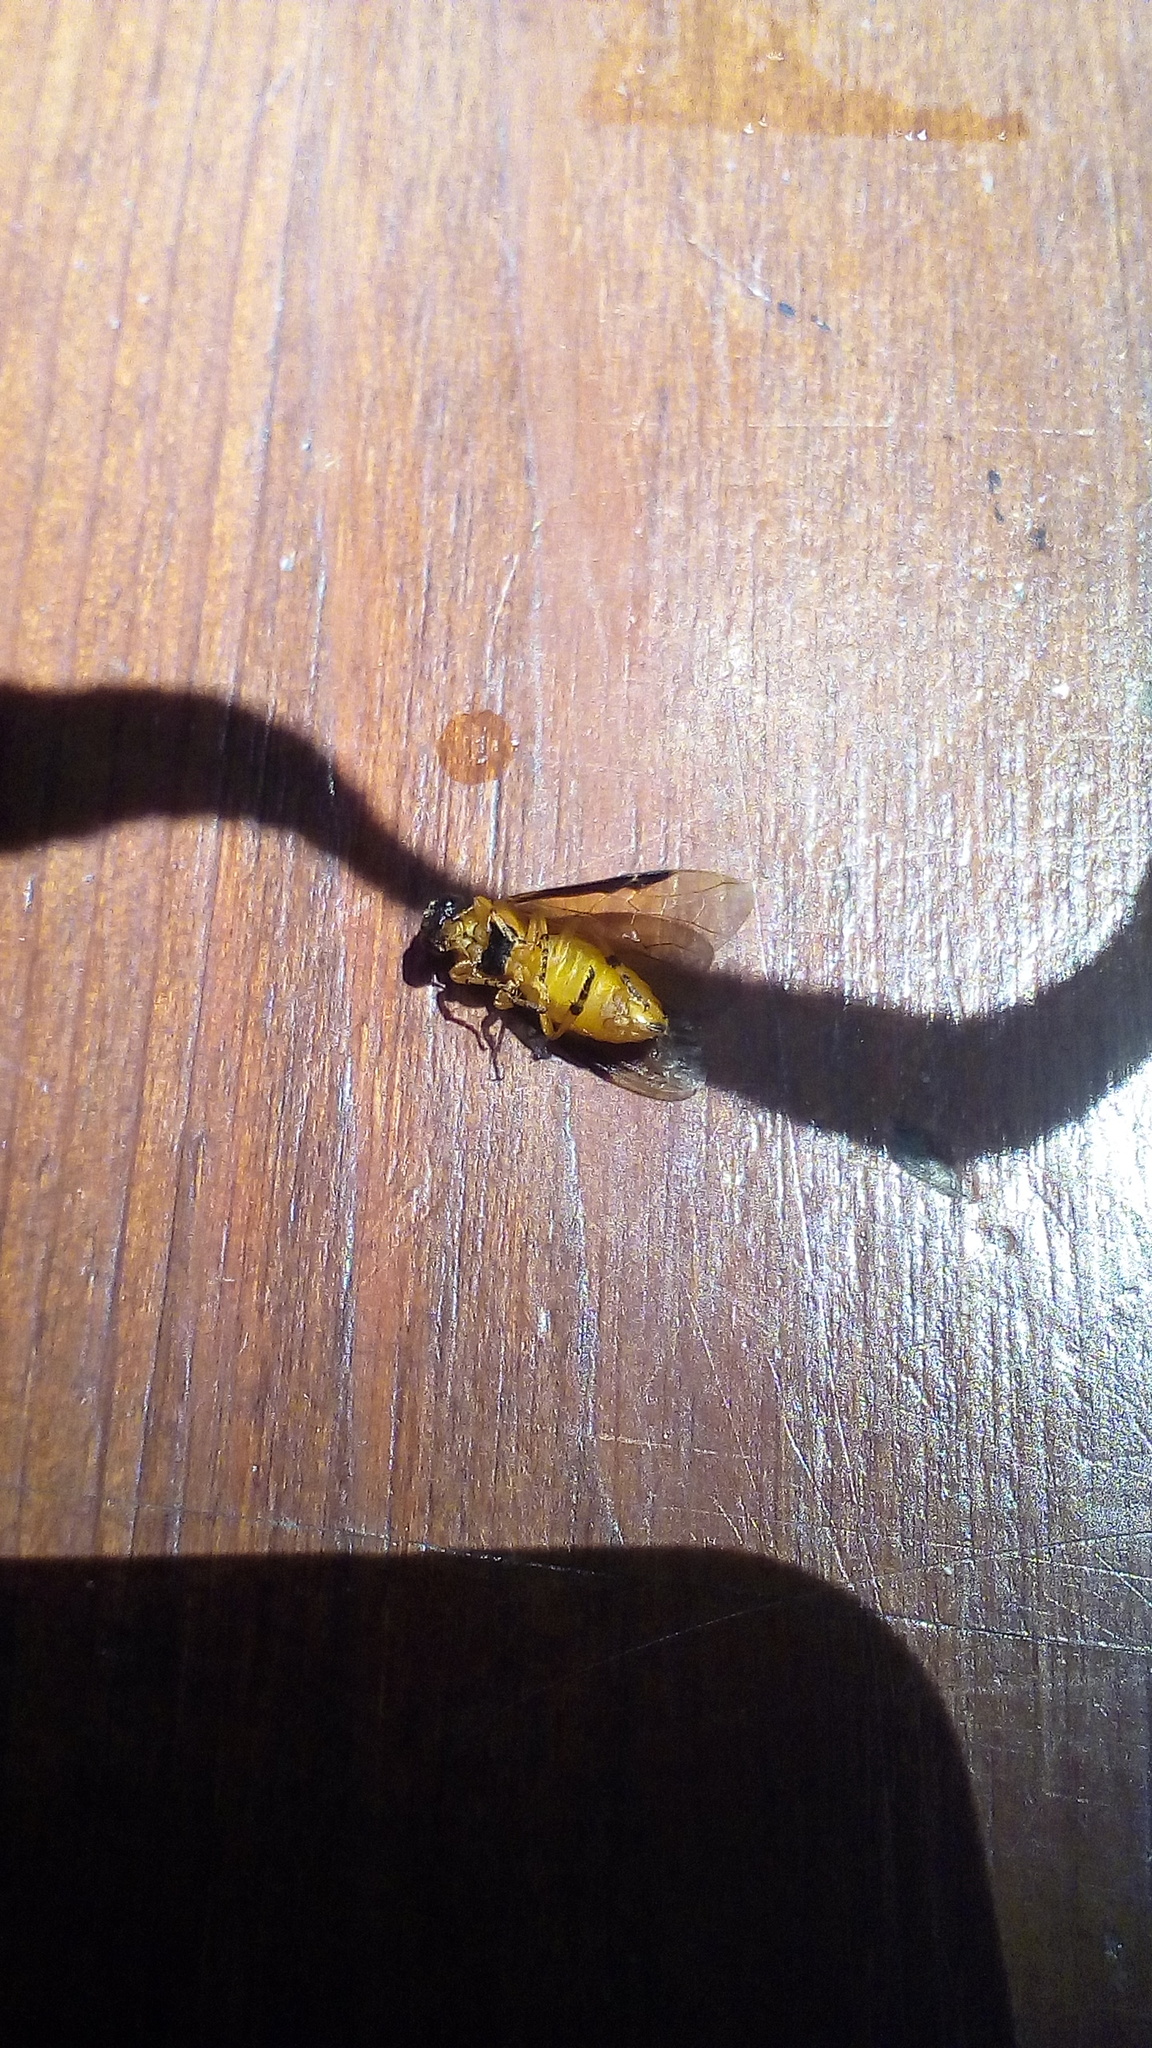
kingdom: Animalia
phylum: Arthropoda
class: Insecta
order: Hymenoptera
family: Argidae
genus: Arge
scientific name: Arge ochropus
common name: Argid sawfly
